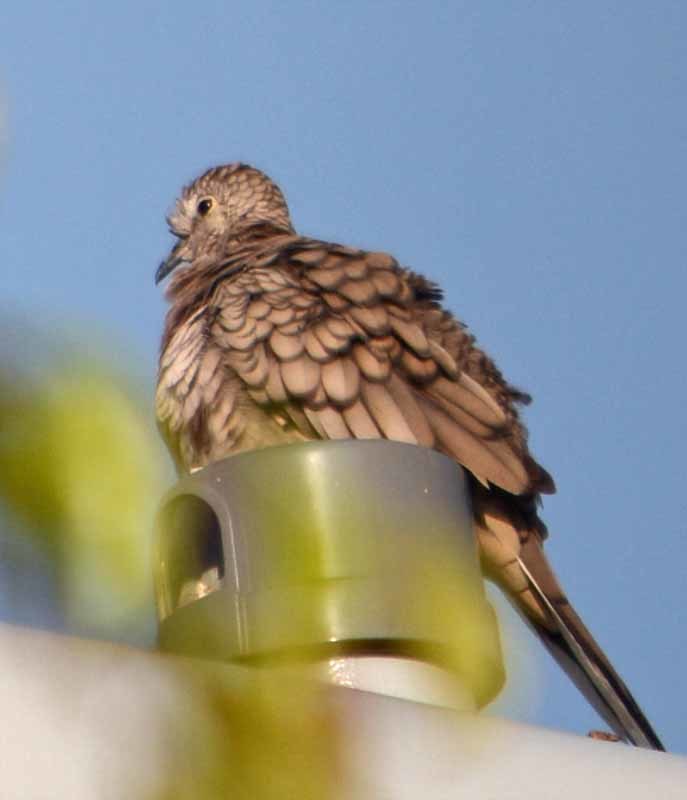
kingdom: Animalia
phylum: Chordata
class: Aves
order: Columbiformes
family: Columbidae
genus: Columbina
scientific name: Columbina inca
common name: Inca dove
